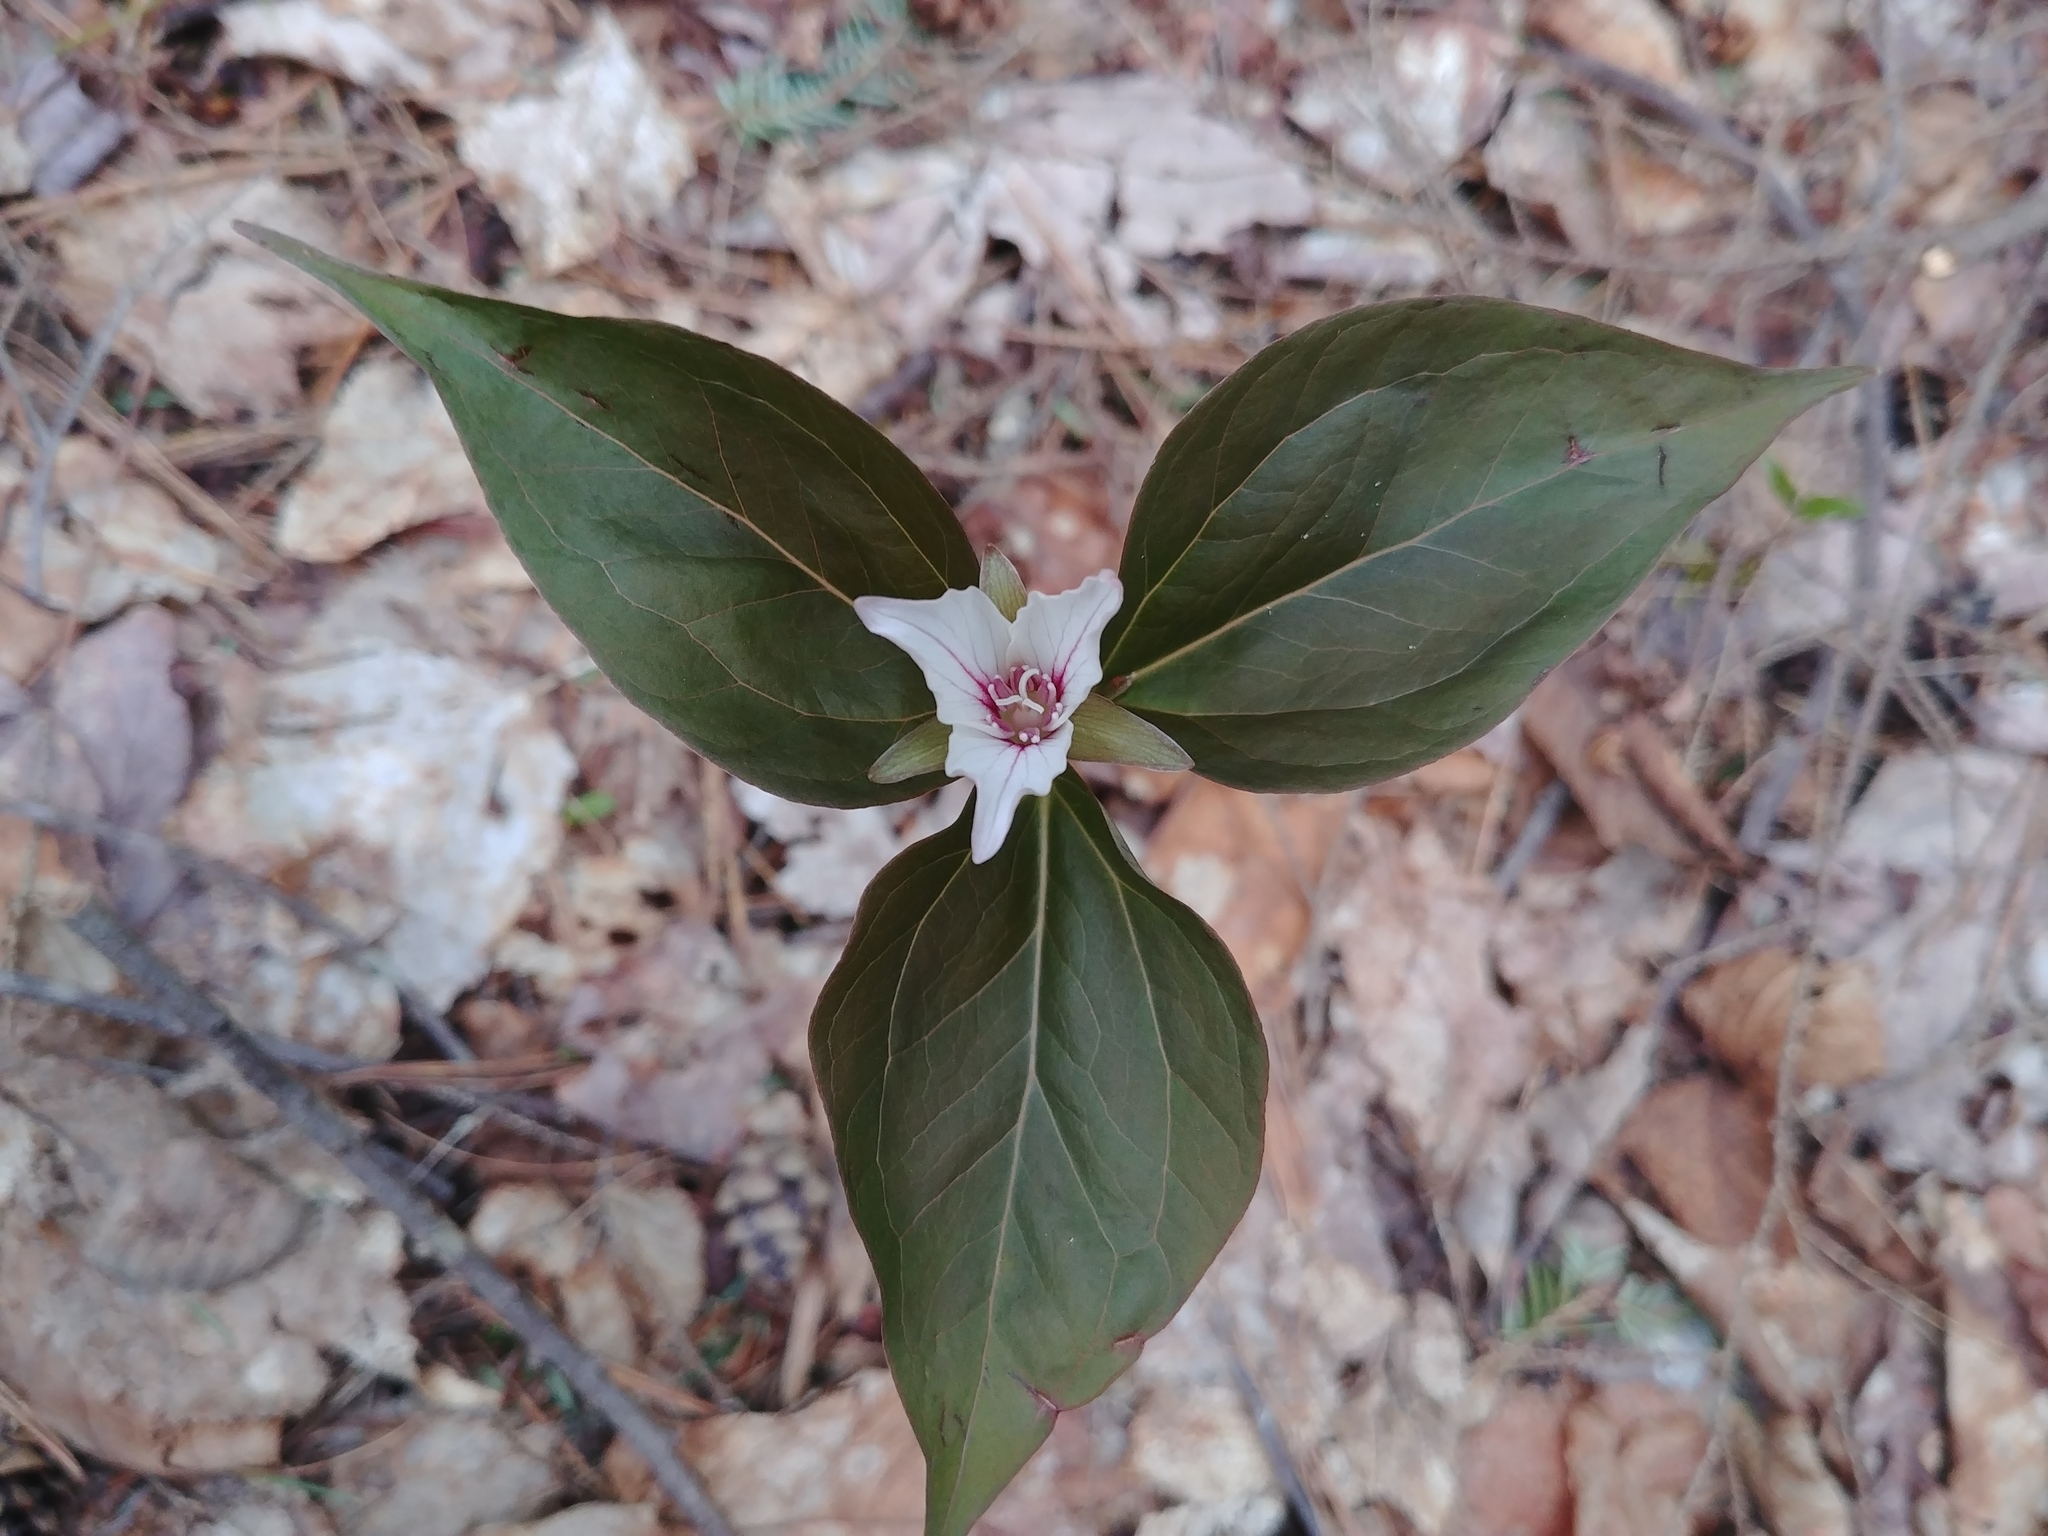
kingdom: Plantae
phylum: Tracheophyta
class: Liliopsida
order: Liliales
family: Melanthiaceae
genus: Trillium
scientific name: Trillium undulatum
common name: Paint trillium
